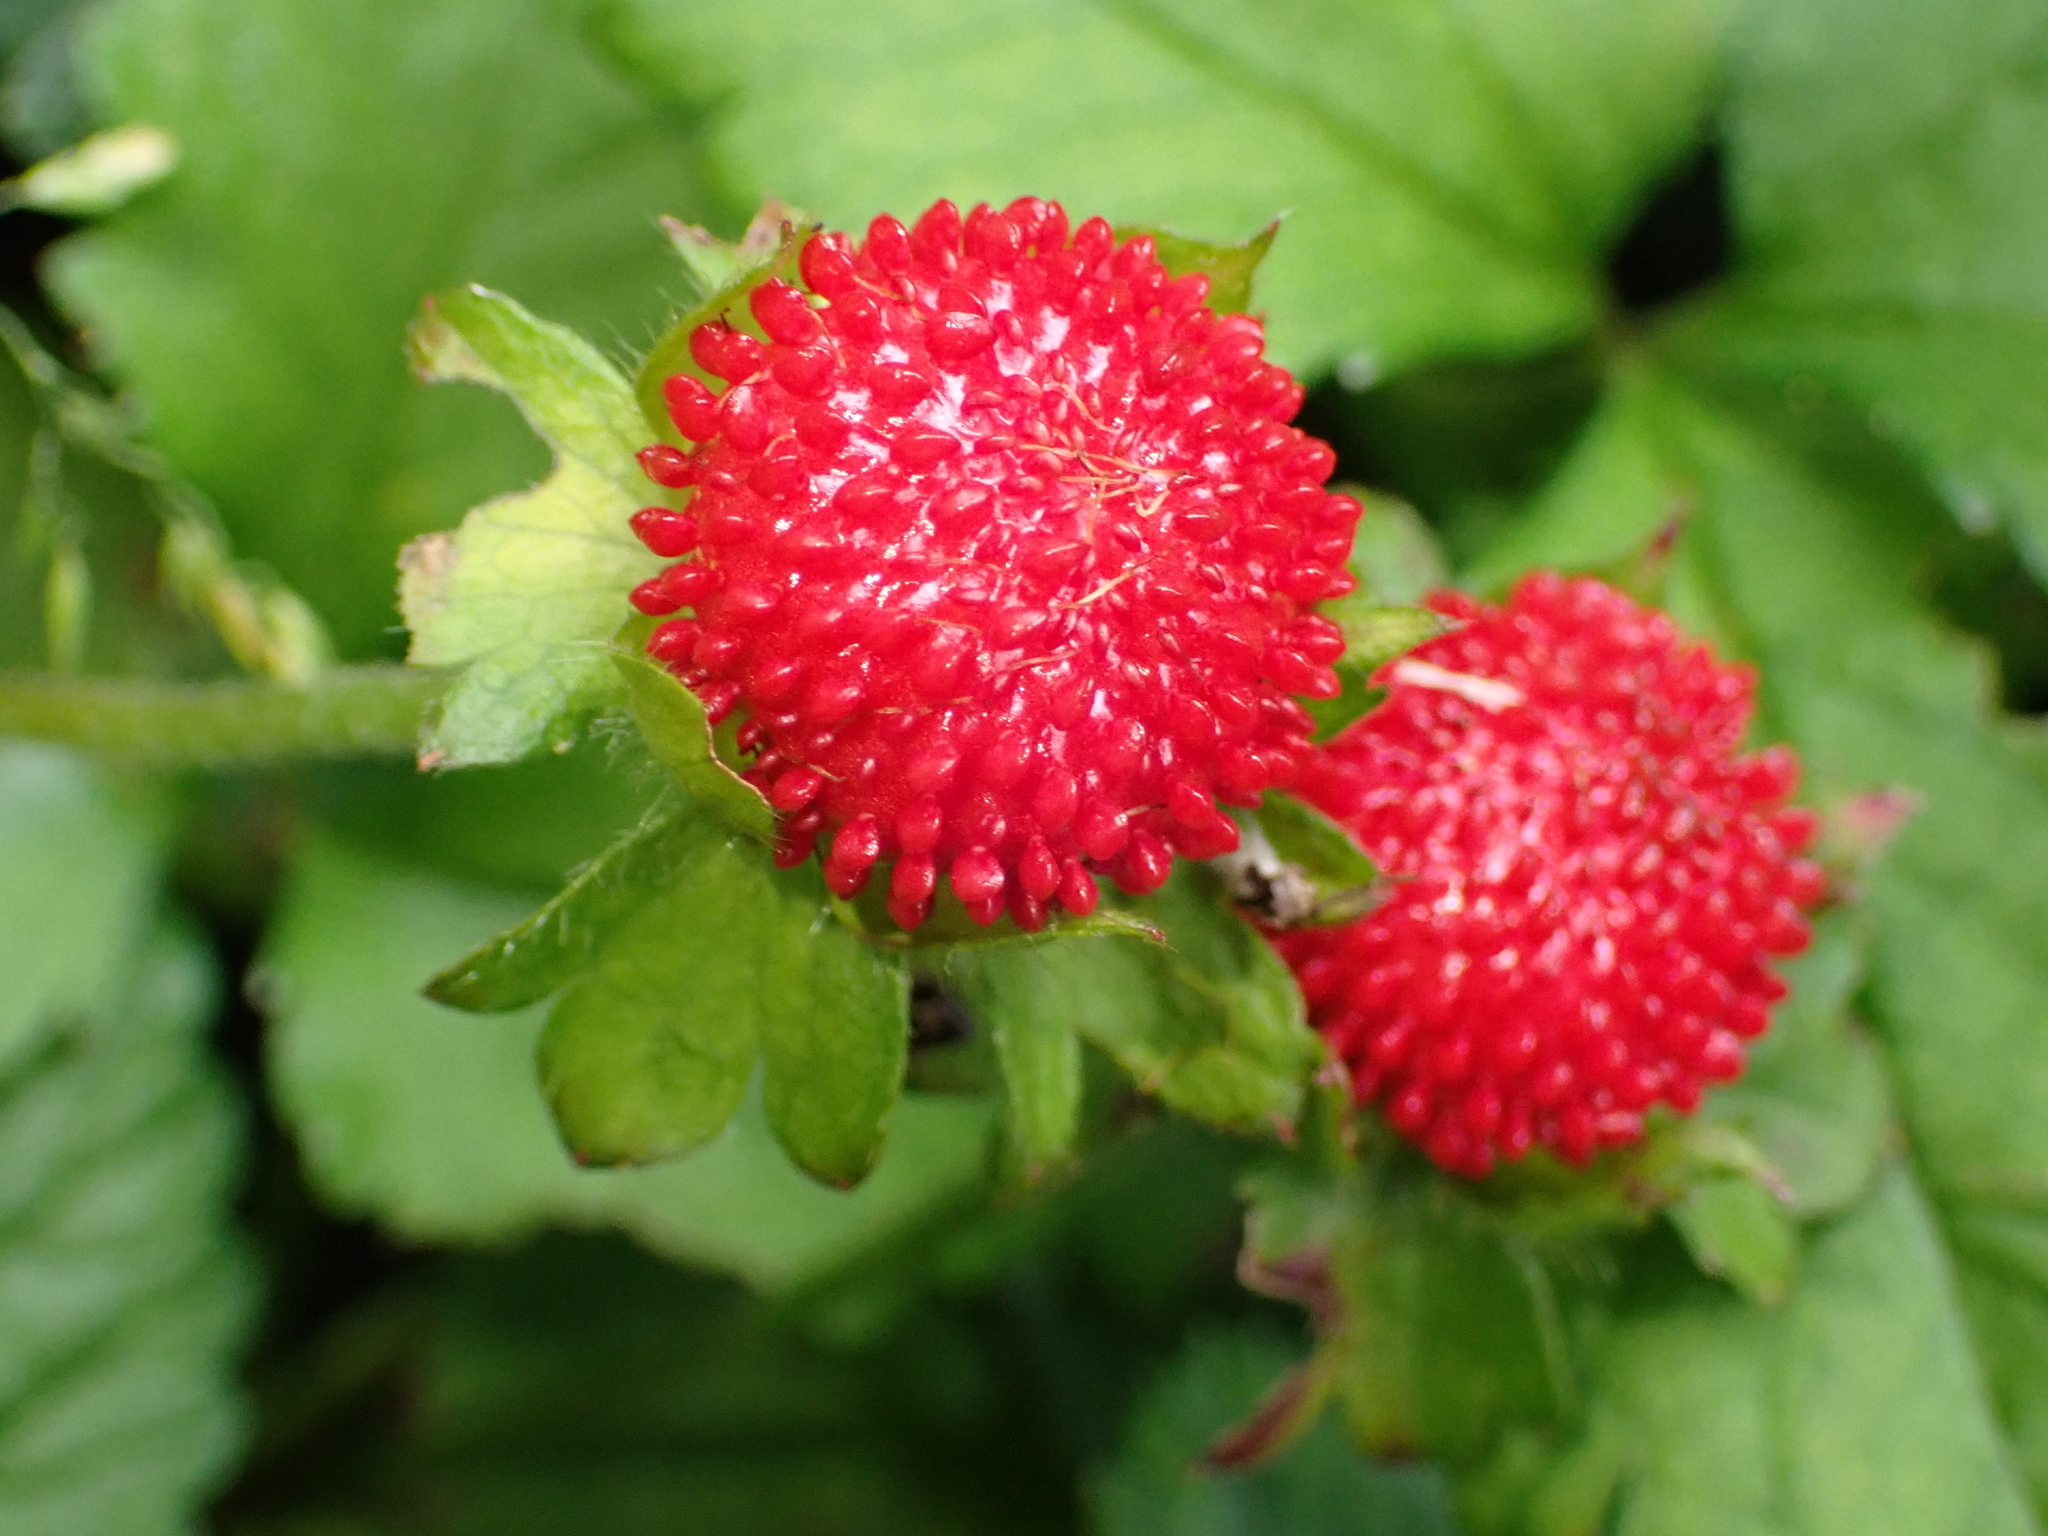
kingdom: Plantae
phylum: Tracheophyta
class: Magnoliopsida
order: Rosales
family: Rosaceae
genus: Potentilla
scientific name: Potentilla indica
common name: Yellow-flowered strawberry
